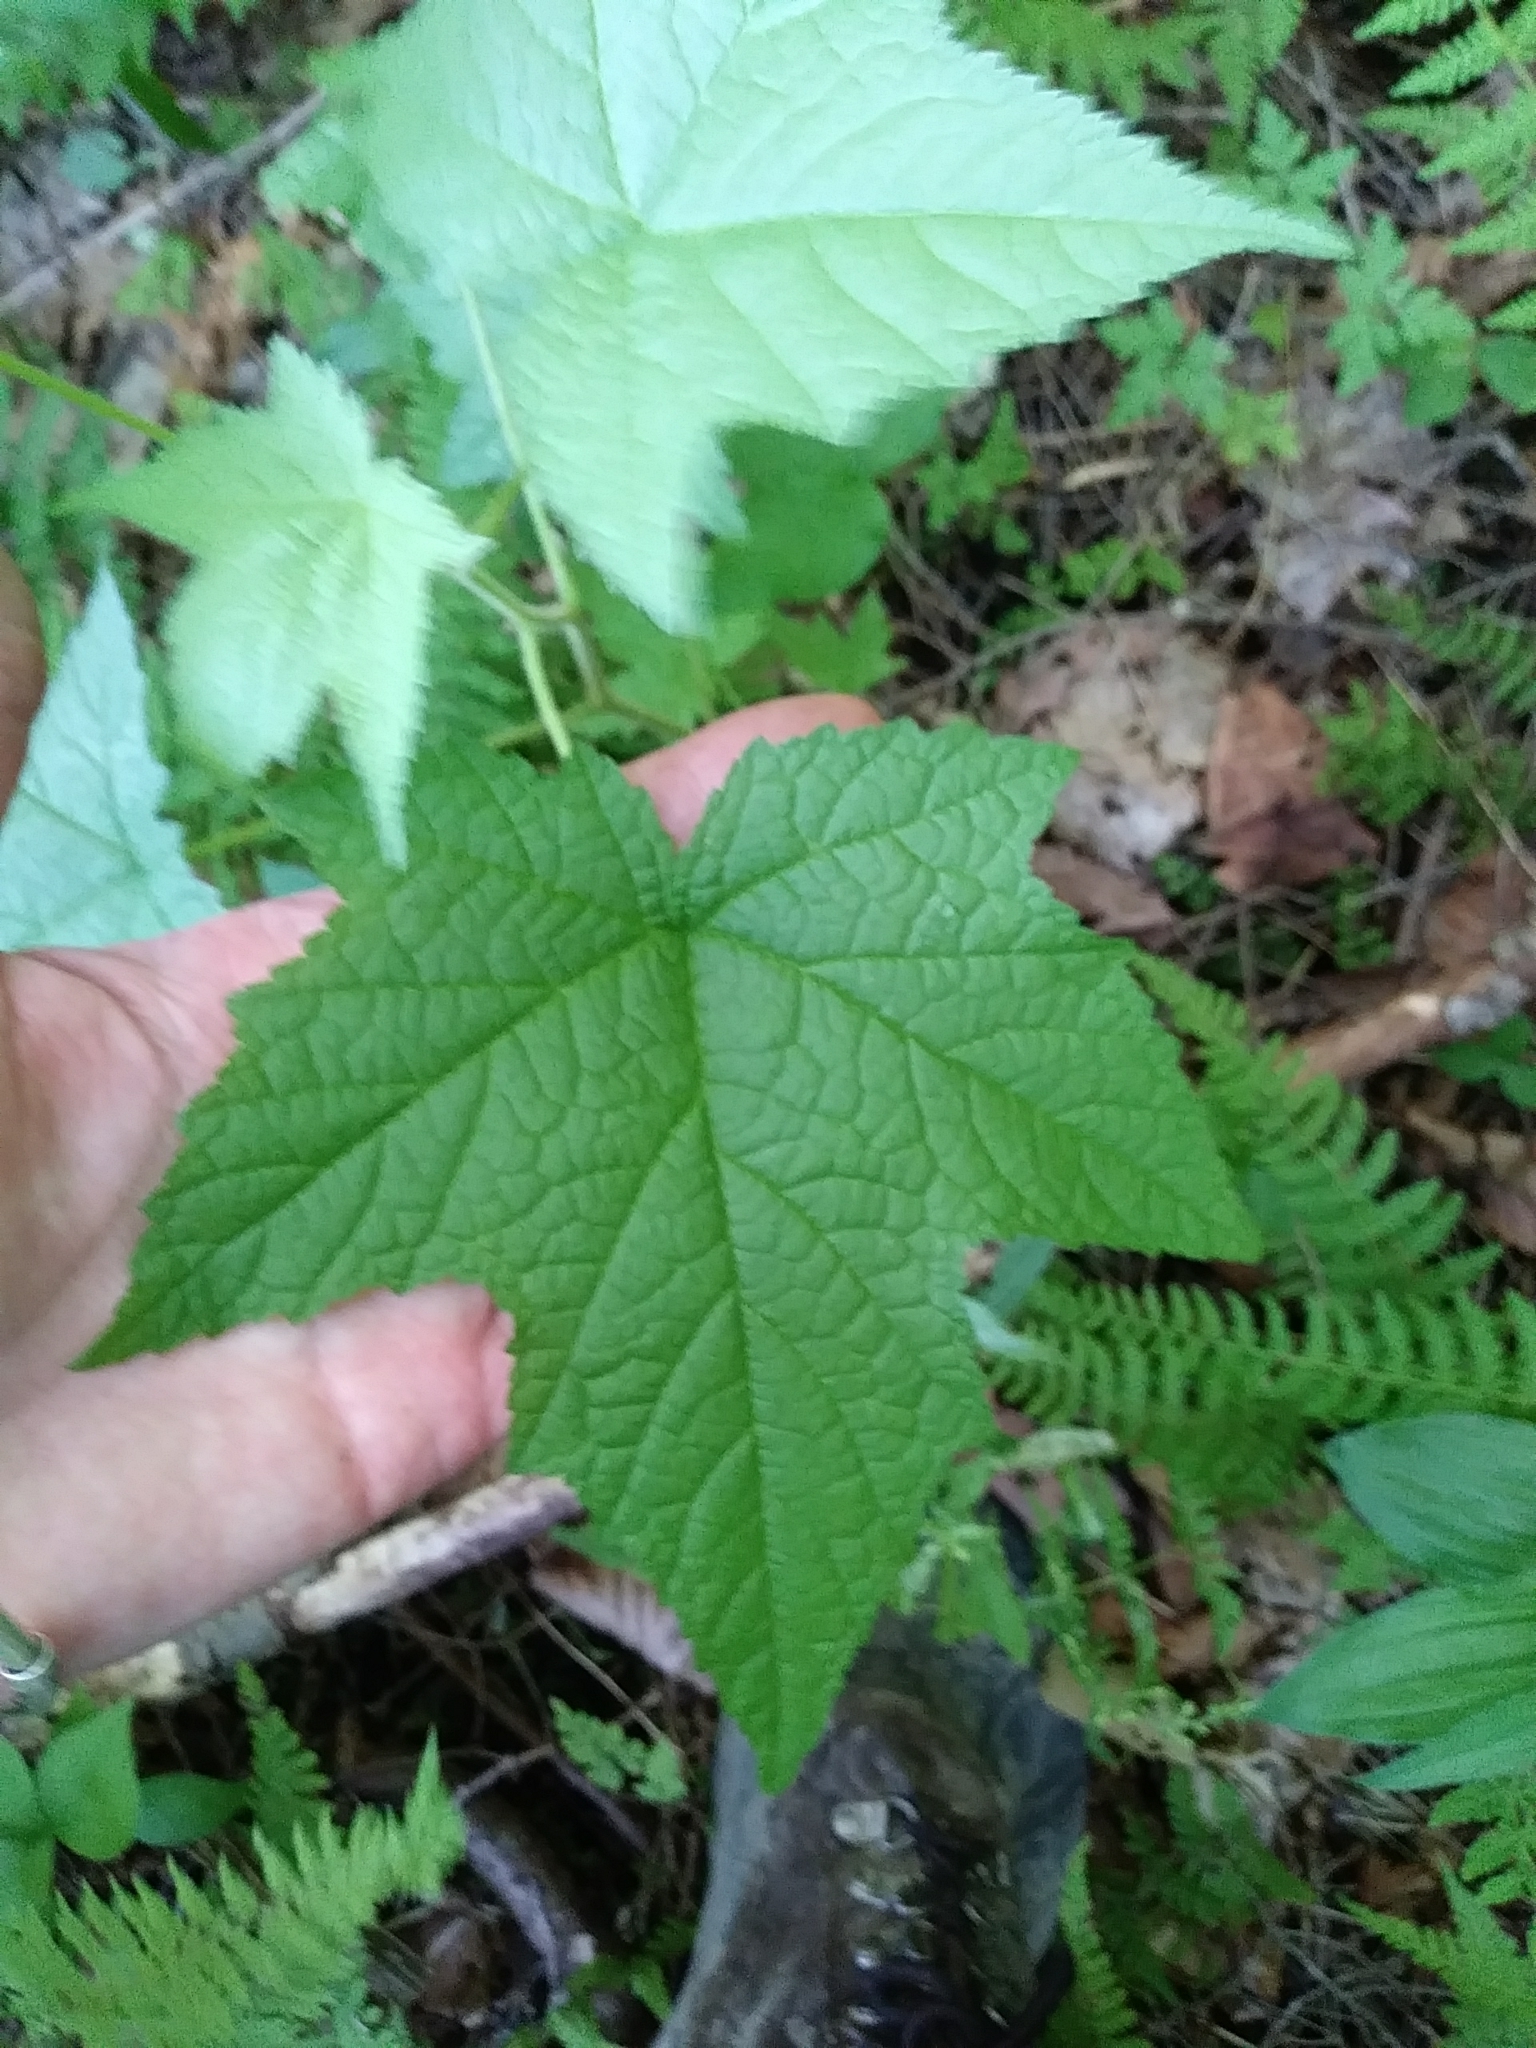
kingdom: Plantae
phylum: Tracheophyta
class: Magnoliopsida
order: Rosales
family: Rosaceae
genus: Rubus
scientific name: Rubus odoratus
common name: Purple-flowered raspberry
